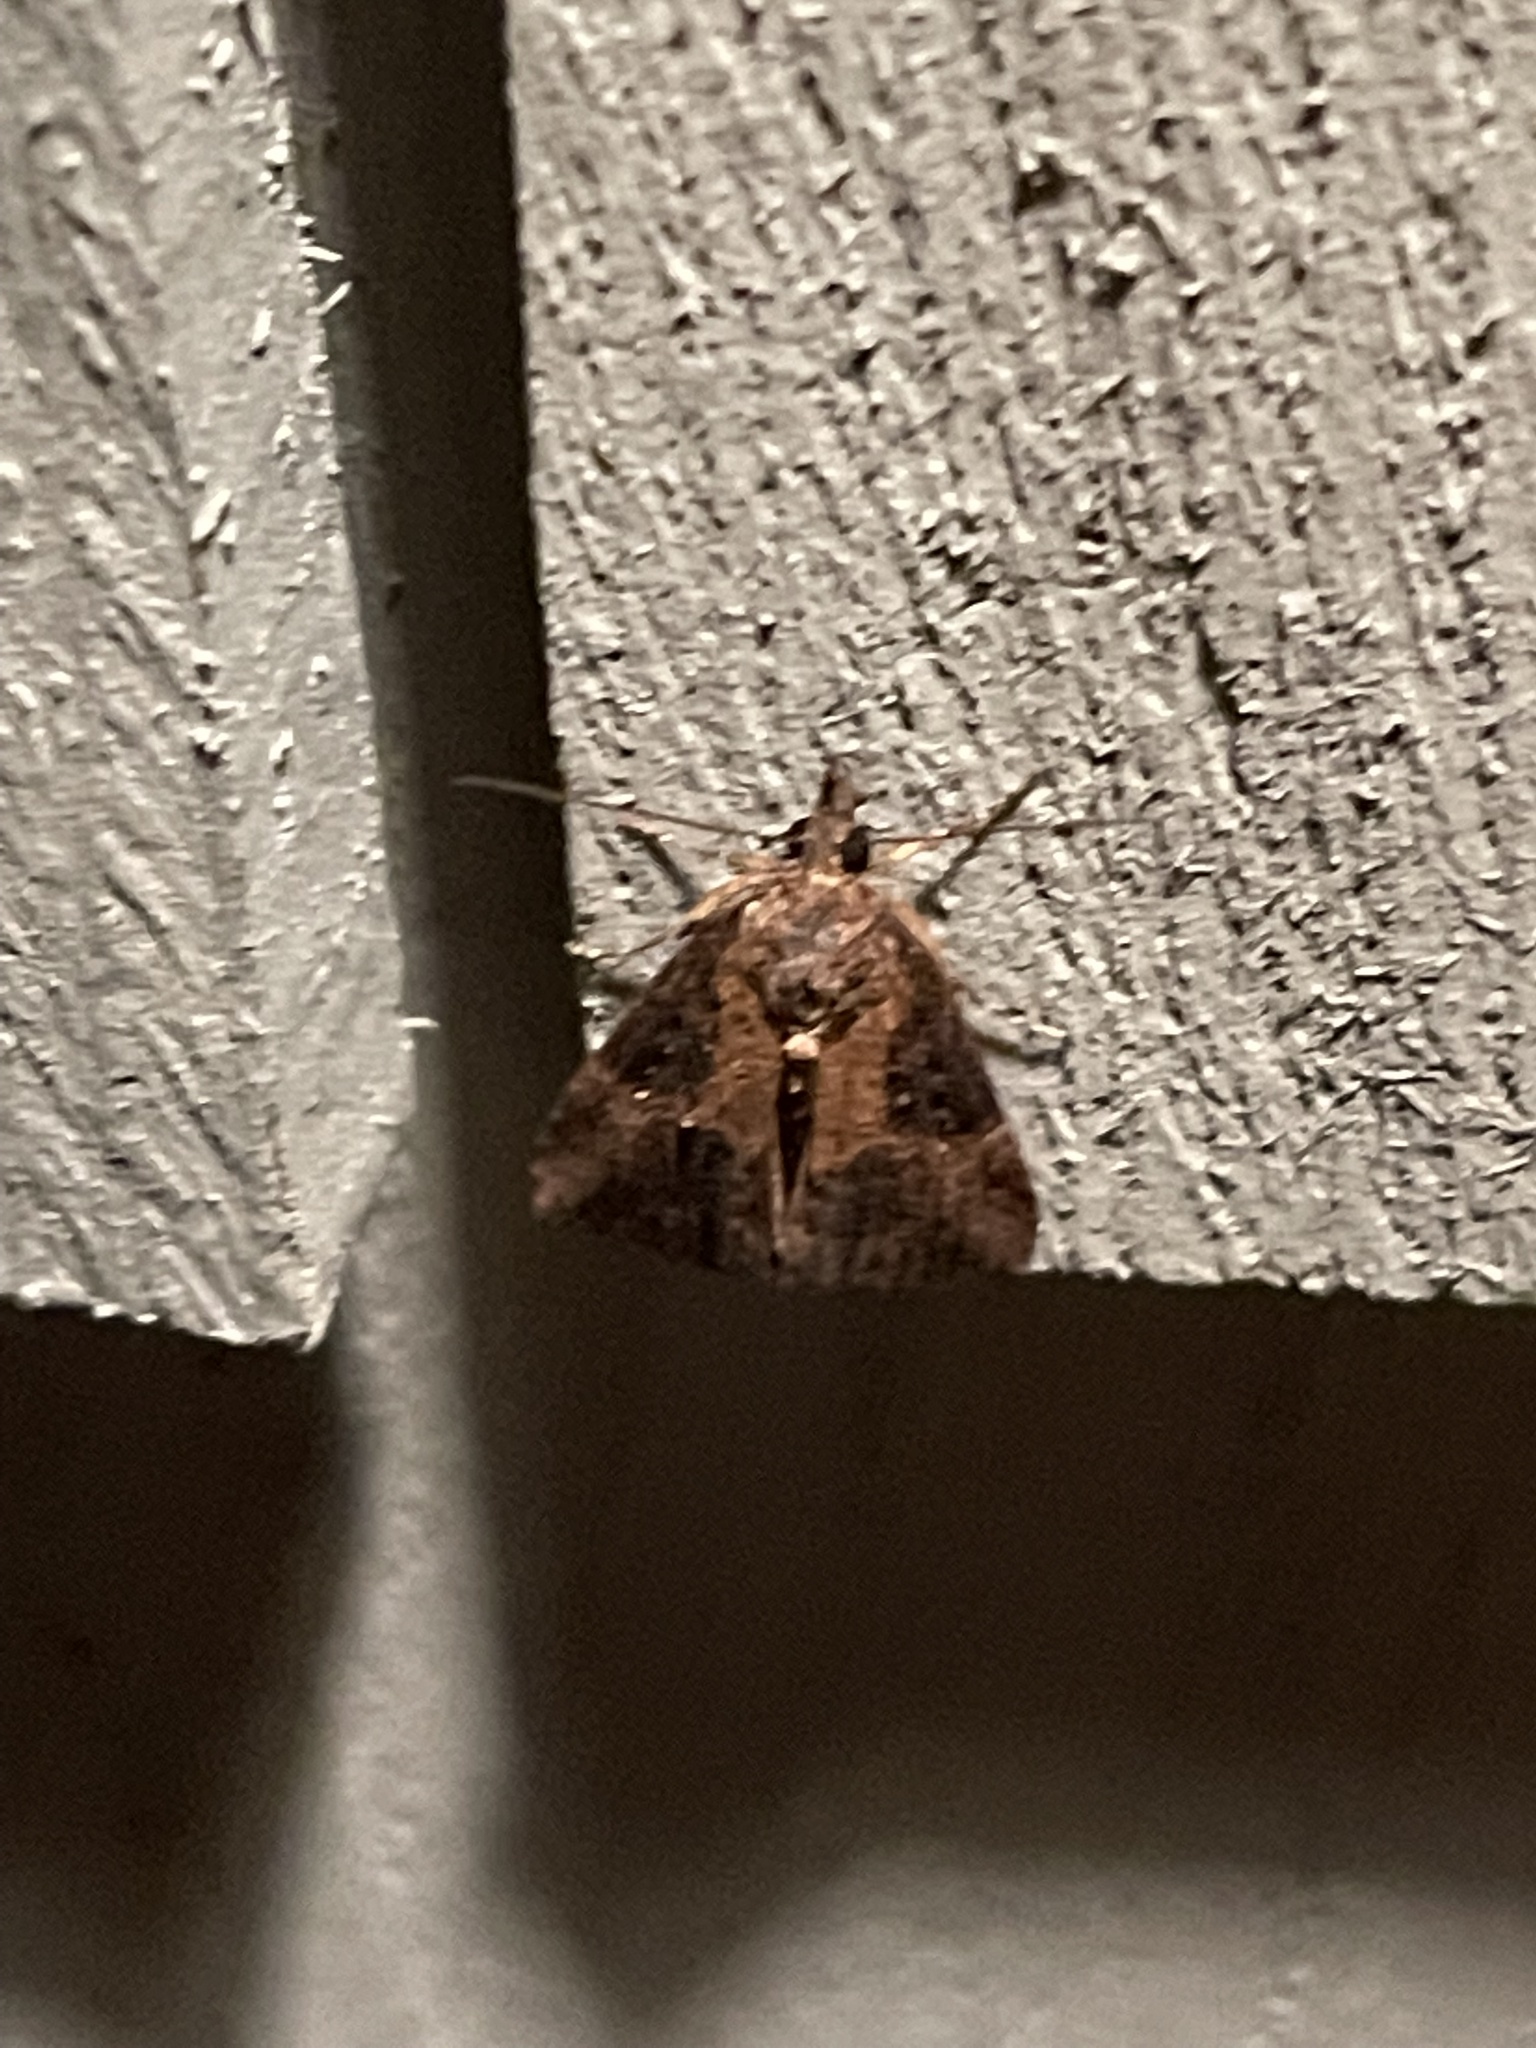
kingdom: Animalia
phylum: Arthropoda
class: Insecta
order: Lepidoptera
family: Erebidae
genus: Hypena
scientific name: Hypena scabra
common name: Green cloverworm
